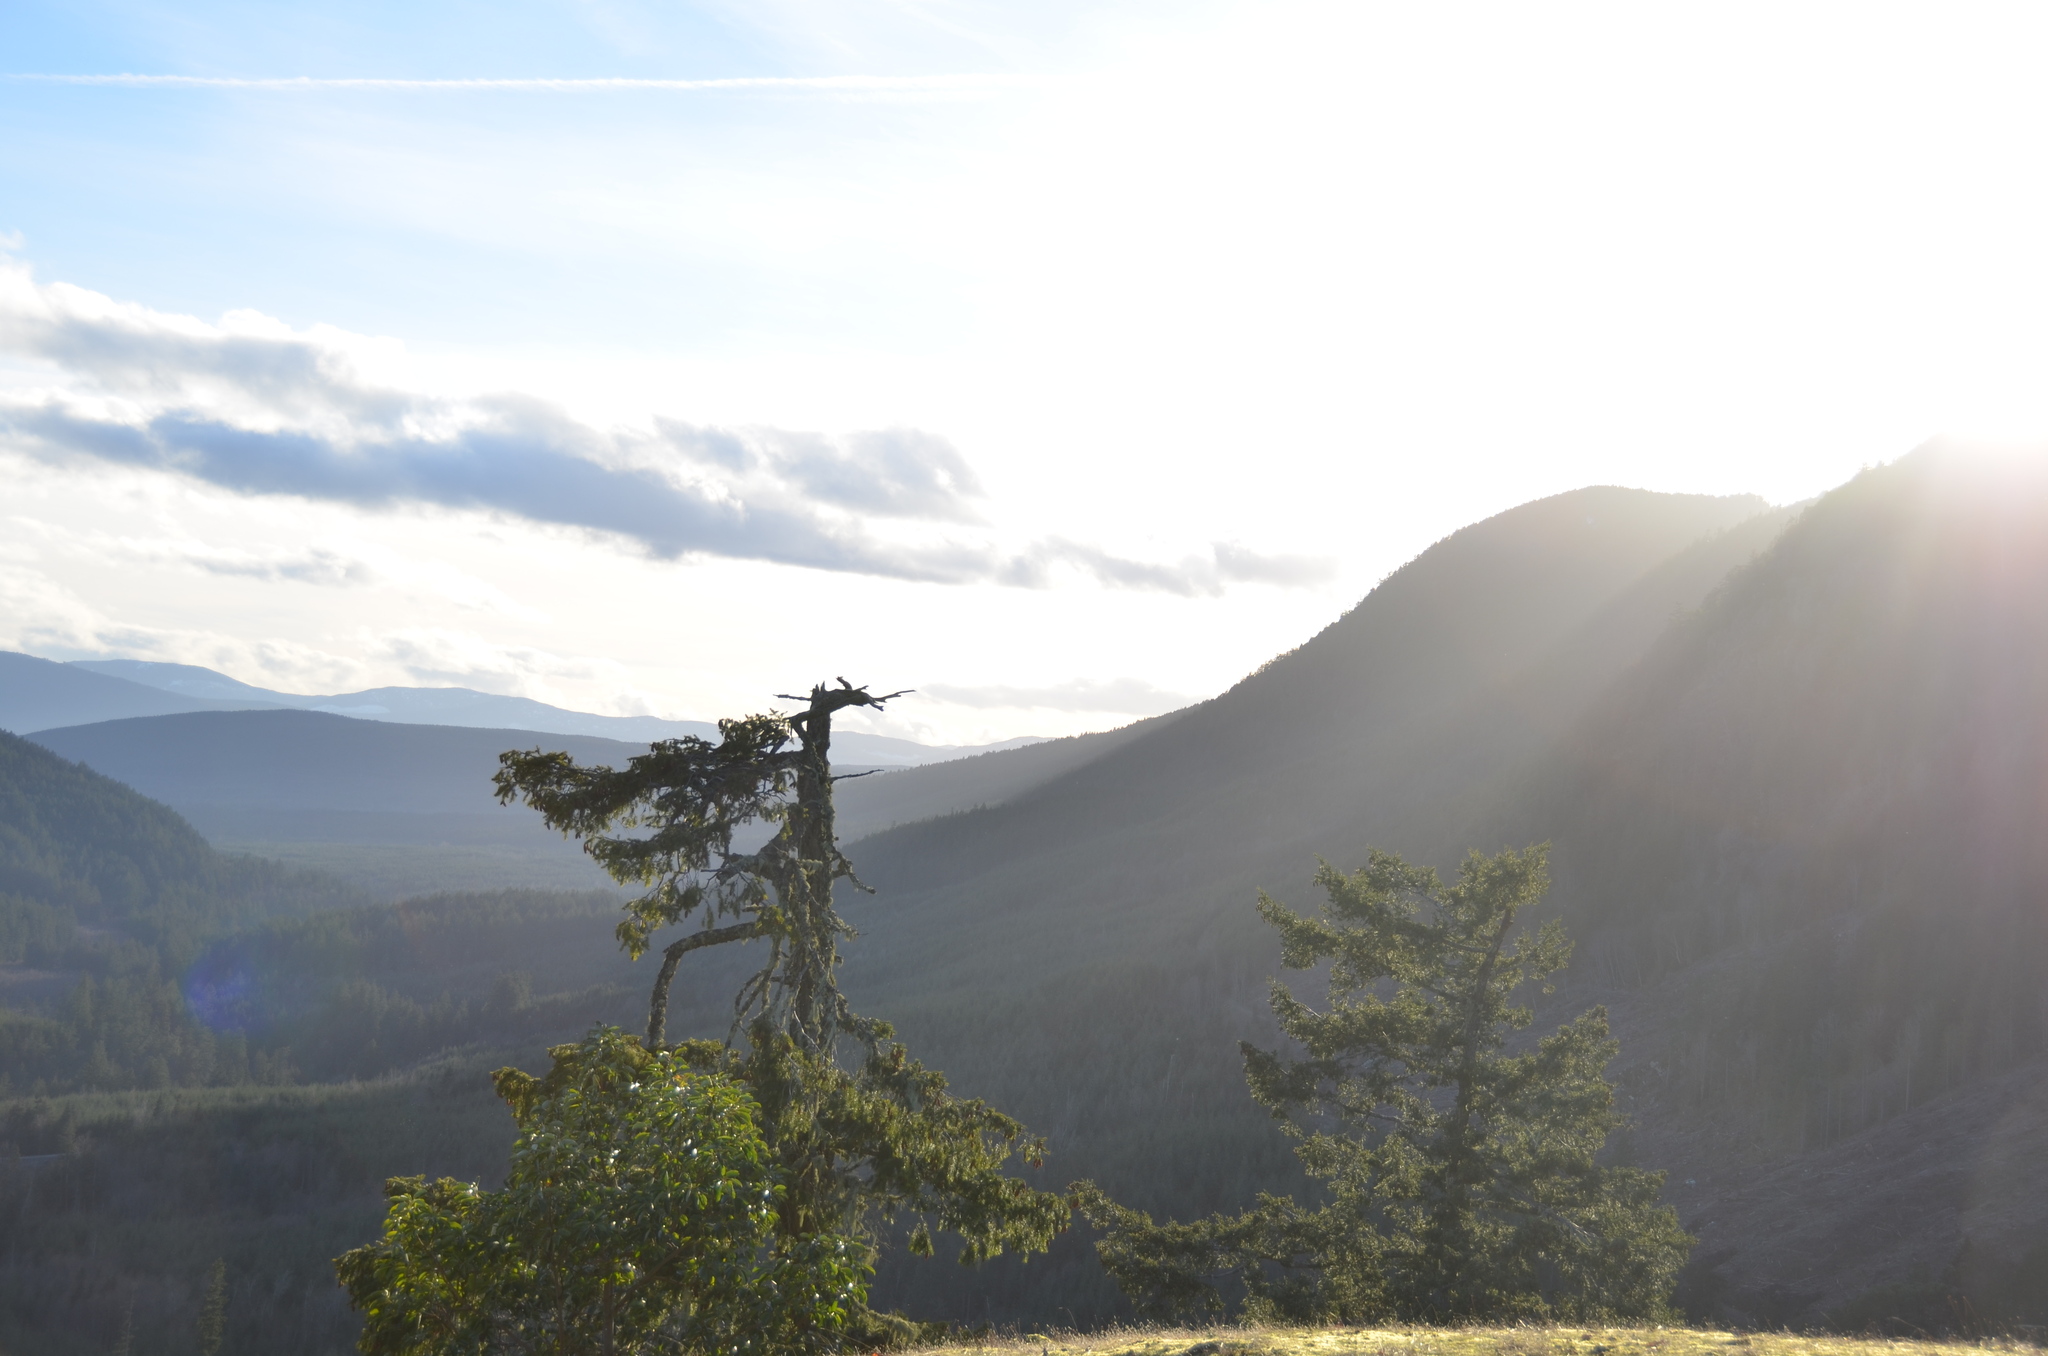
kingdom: Plantae
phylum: Tracheophyta
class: Pinopsida
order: Pinales
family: Pinaceae
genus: Pseudotsuga
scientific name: Pseudotsuga menziesii
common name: Douglas fir
